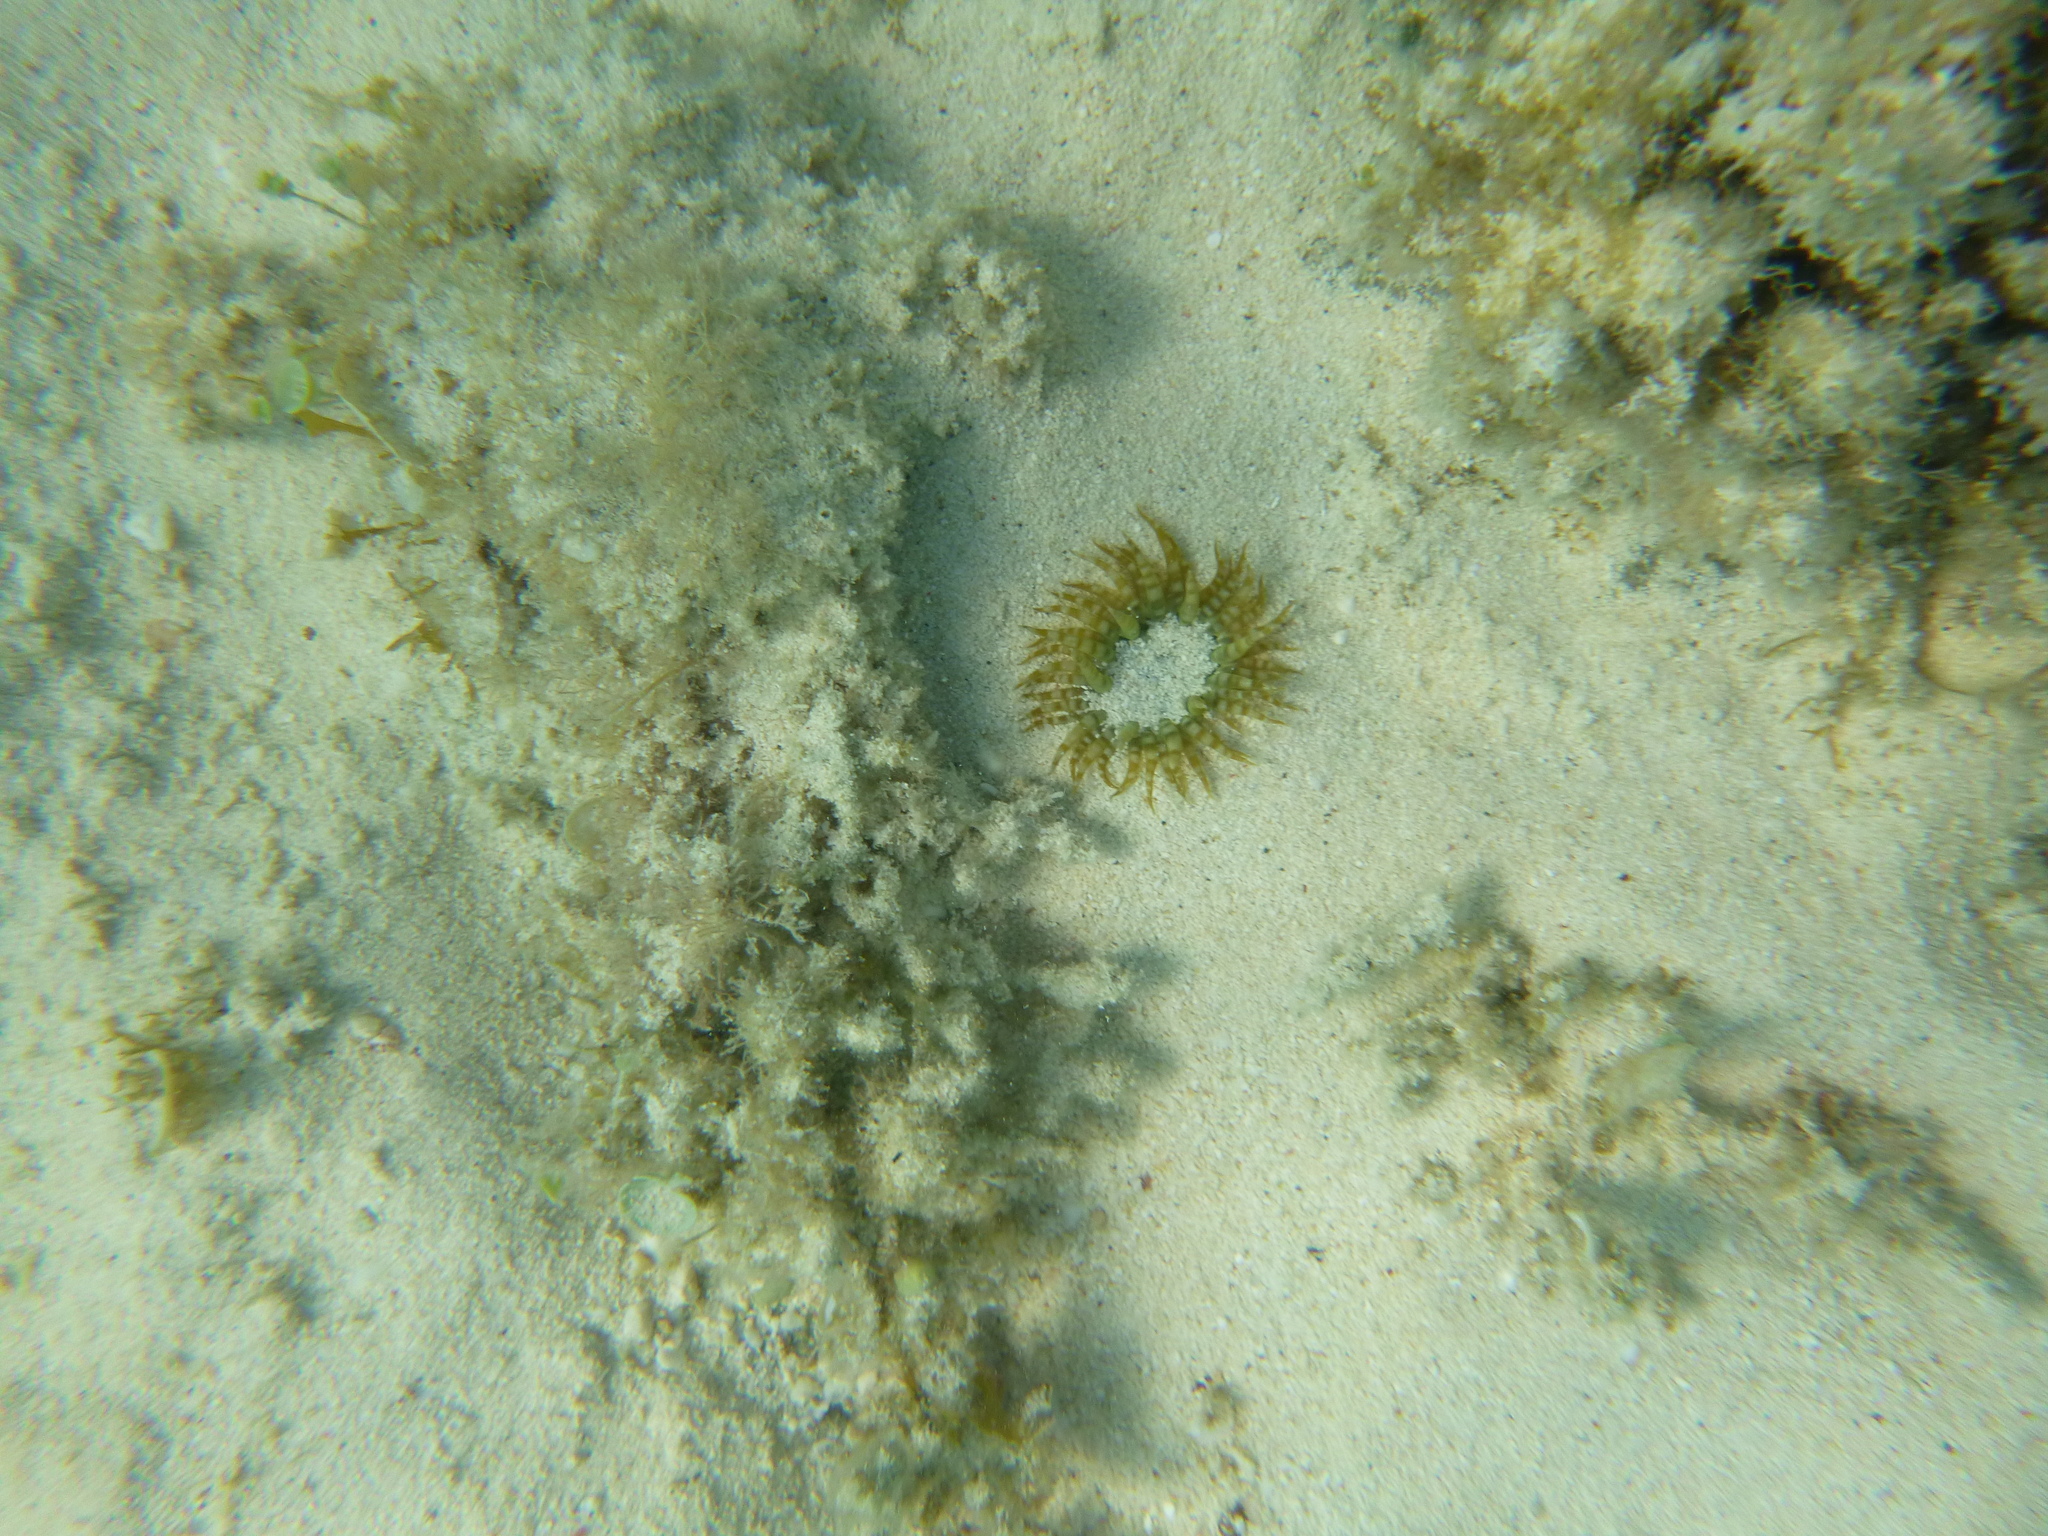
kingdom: Animalia
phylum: Cnidaria
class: Anthozoa
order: Actiniaria
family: Actiniidae
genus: Isoaulactinia
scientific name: Isoaulactinia stelloides
